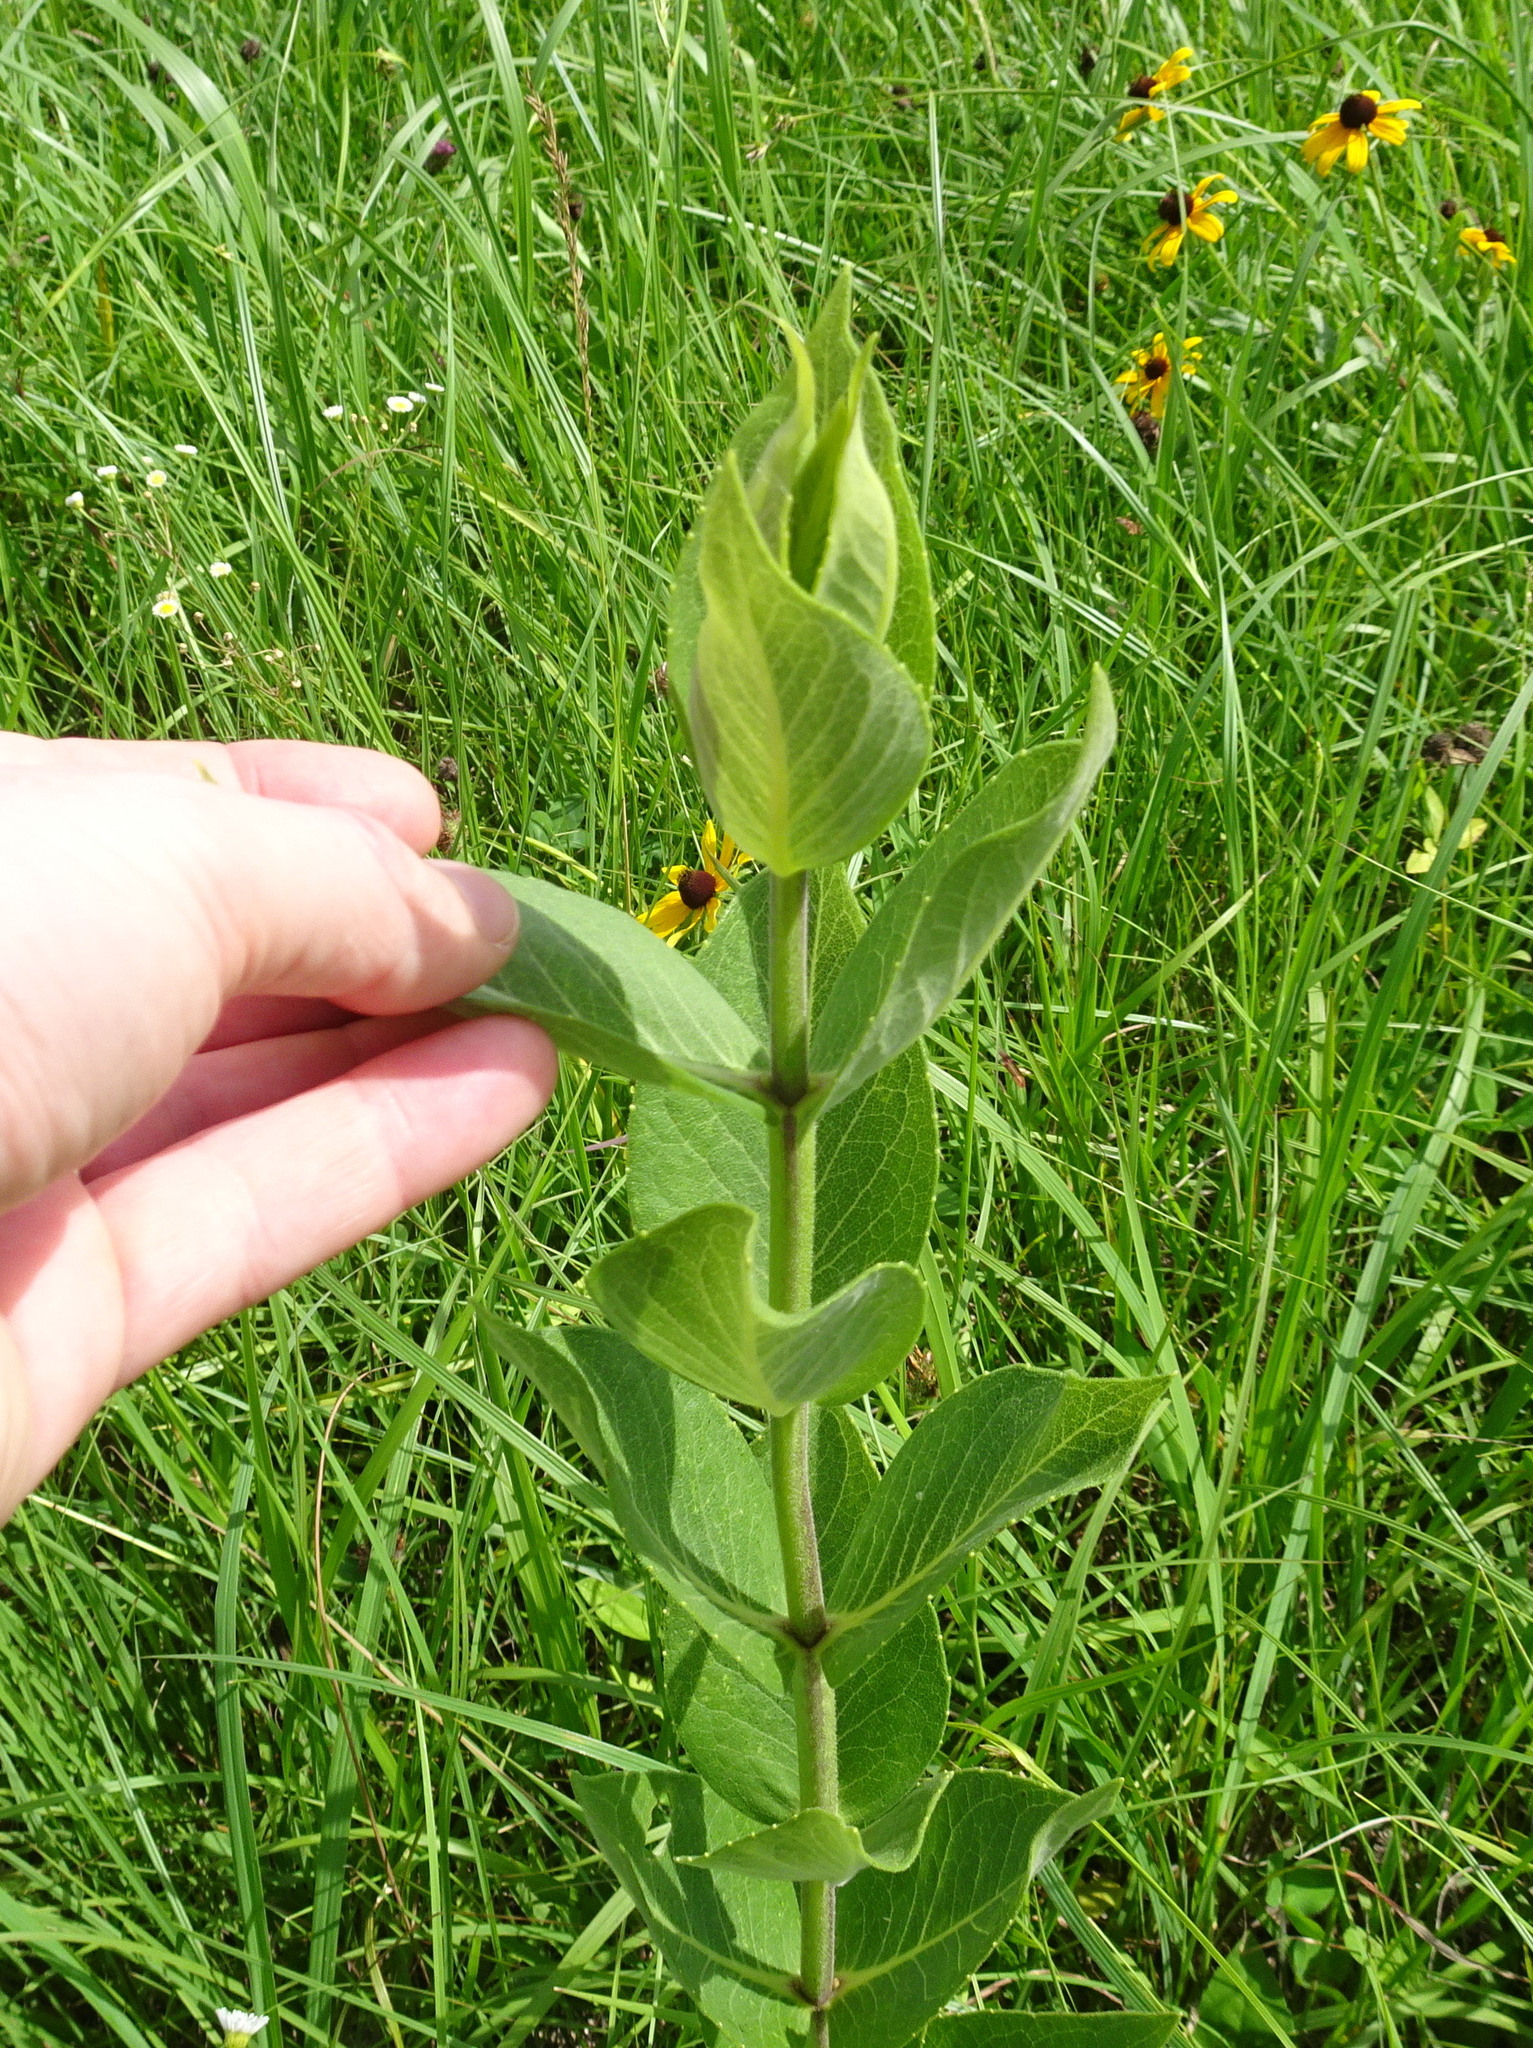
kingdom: Plantae
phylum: Tracheophyta
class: Magnoliopsida
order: Asterales
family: Asteraceae
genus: Silphium
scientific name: Silphium integrifolium
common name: Whole-leaf rosinweed
